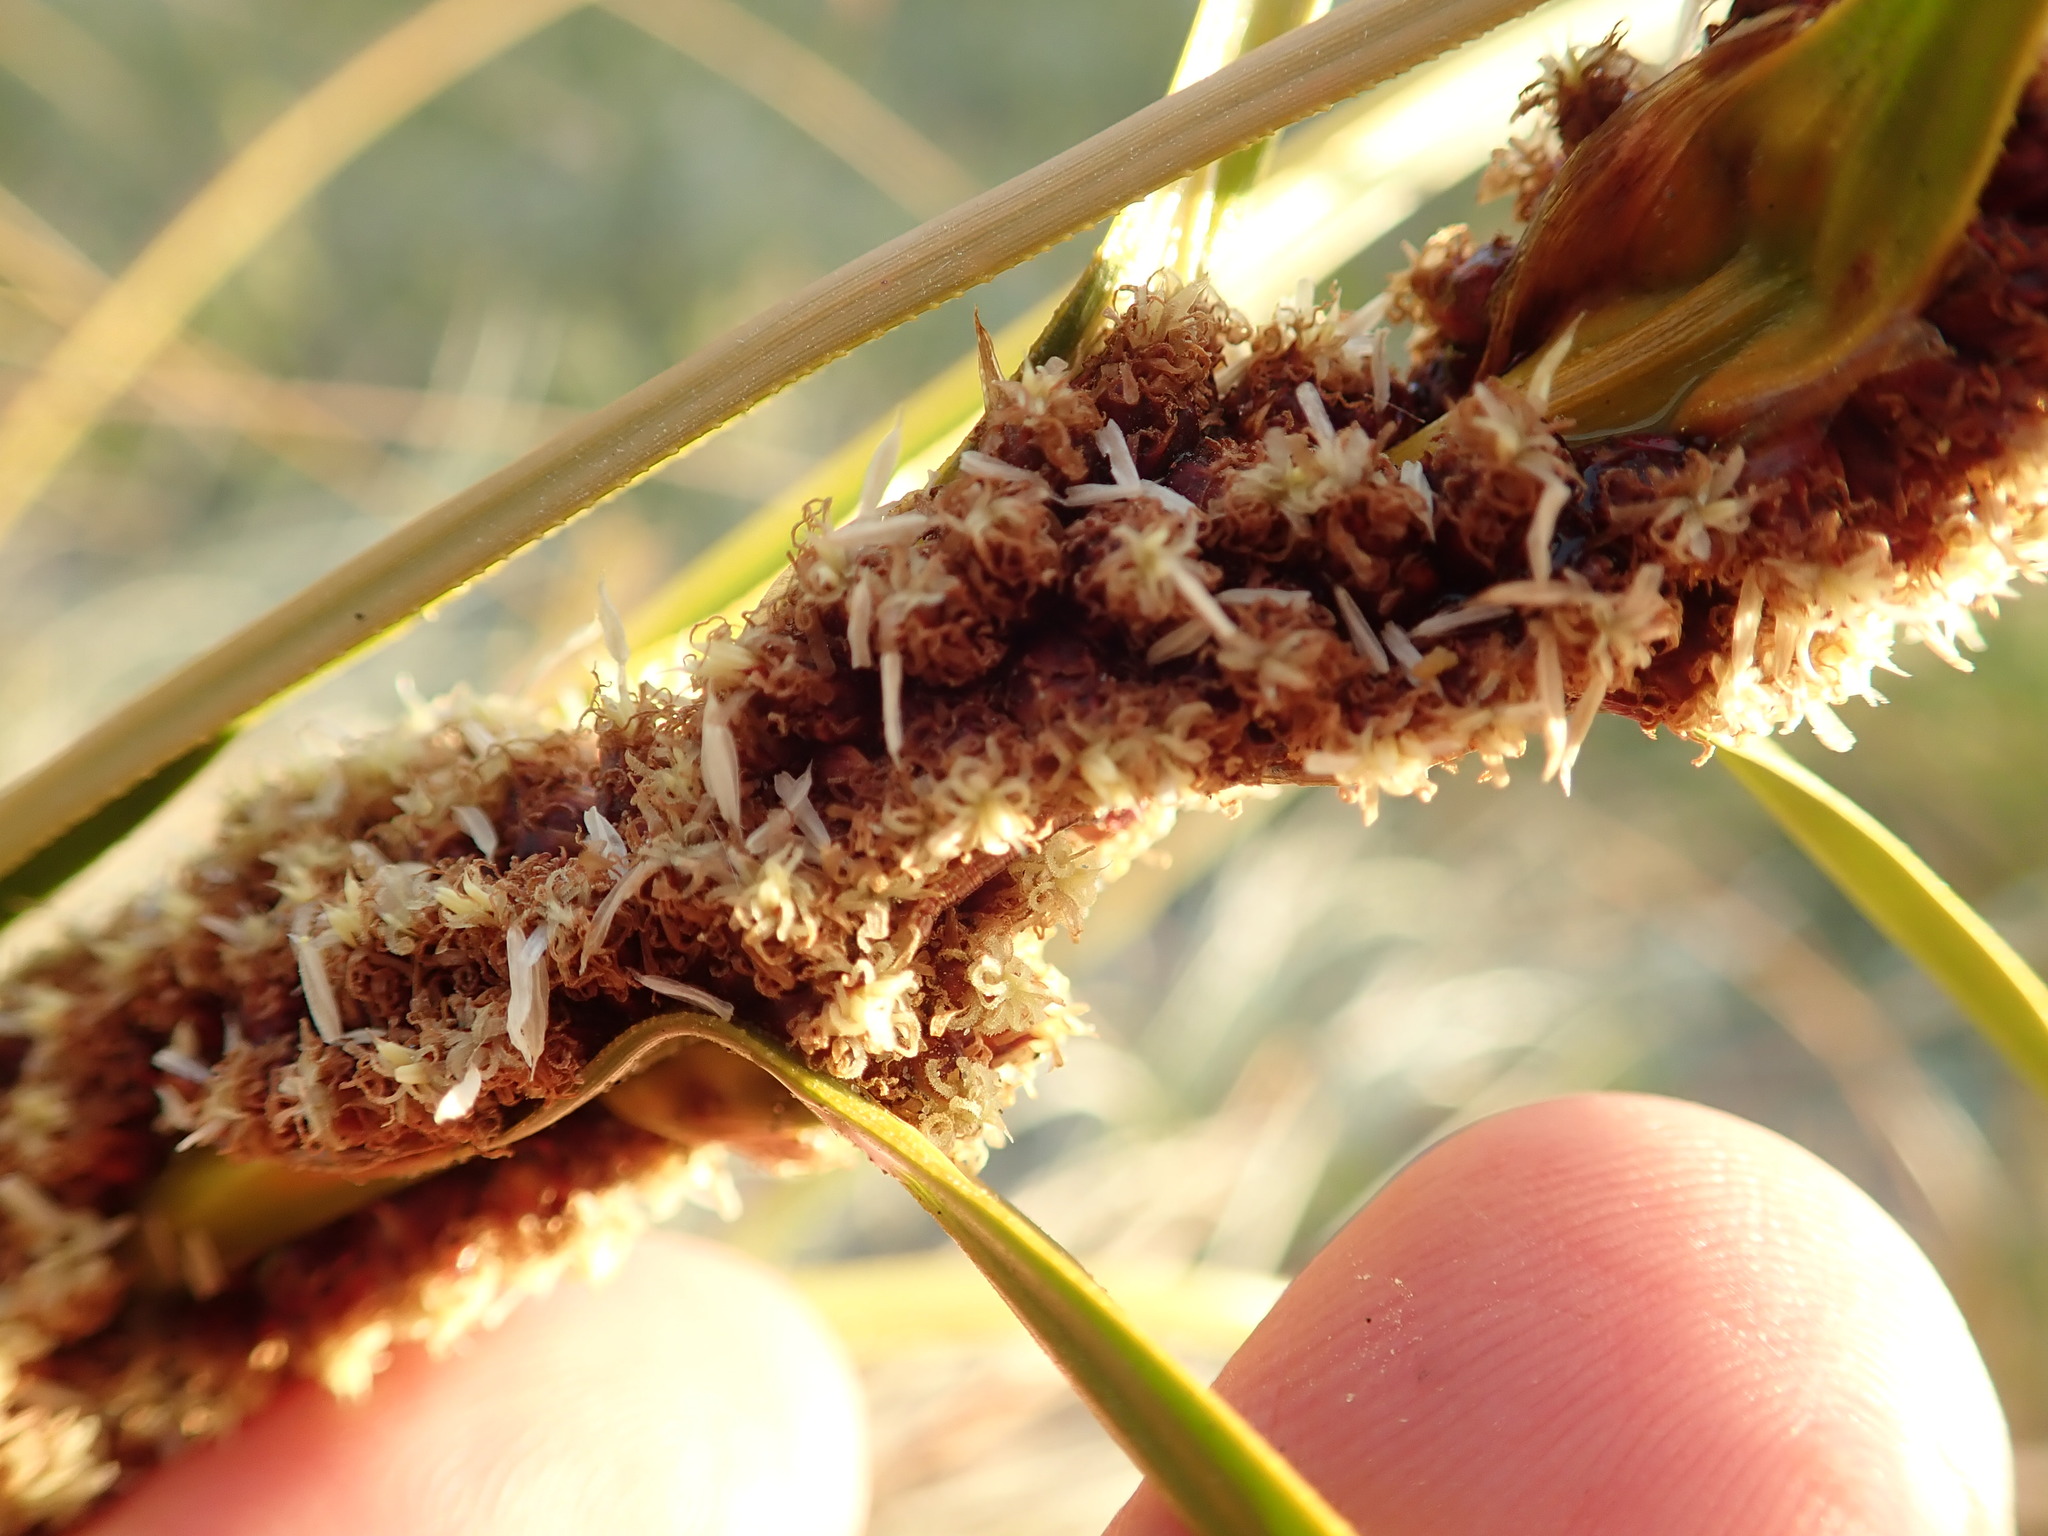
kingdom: Plantae
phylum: Tracheophyta
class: Liliopsida
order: Poales
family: Cyperaceae
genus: Ficinia
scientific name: Ficinia spiralis
